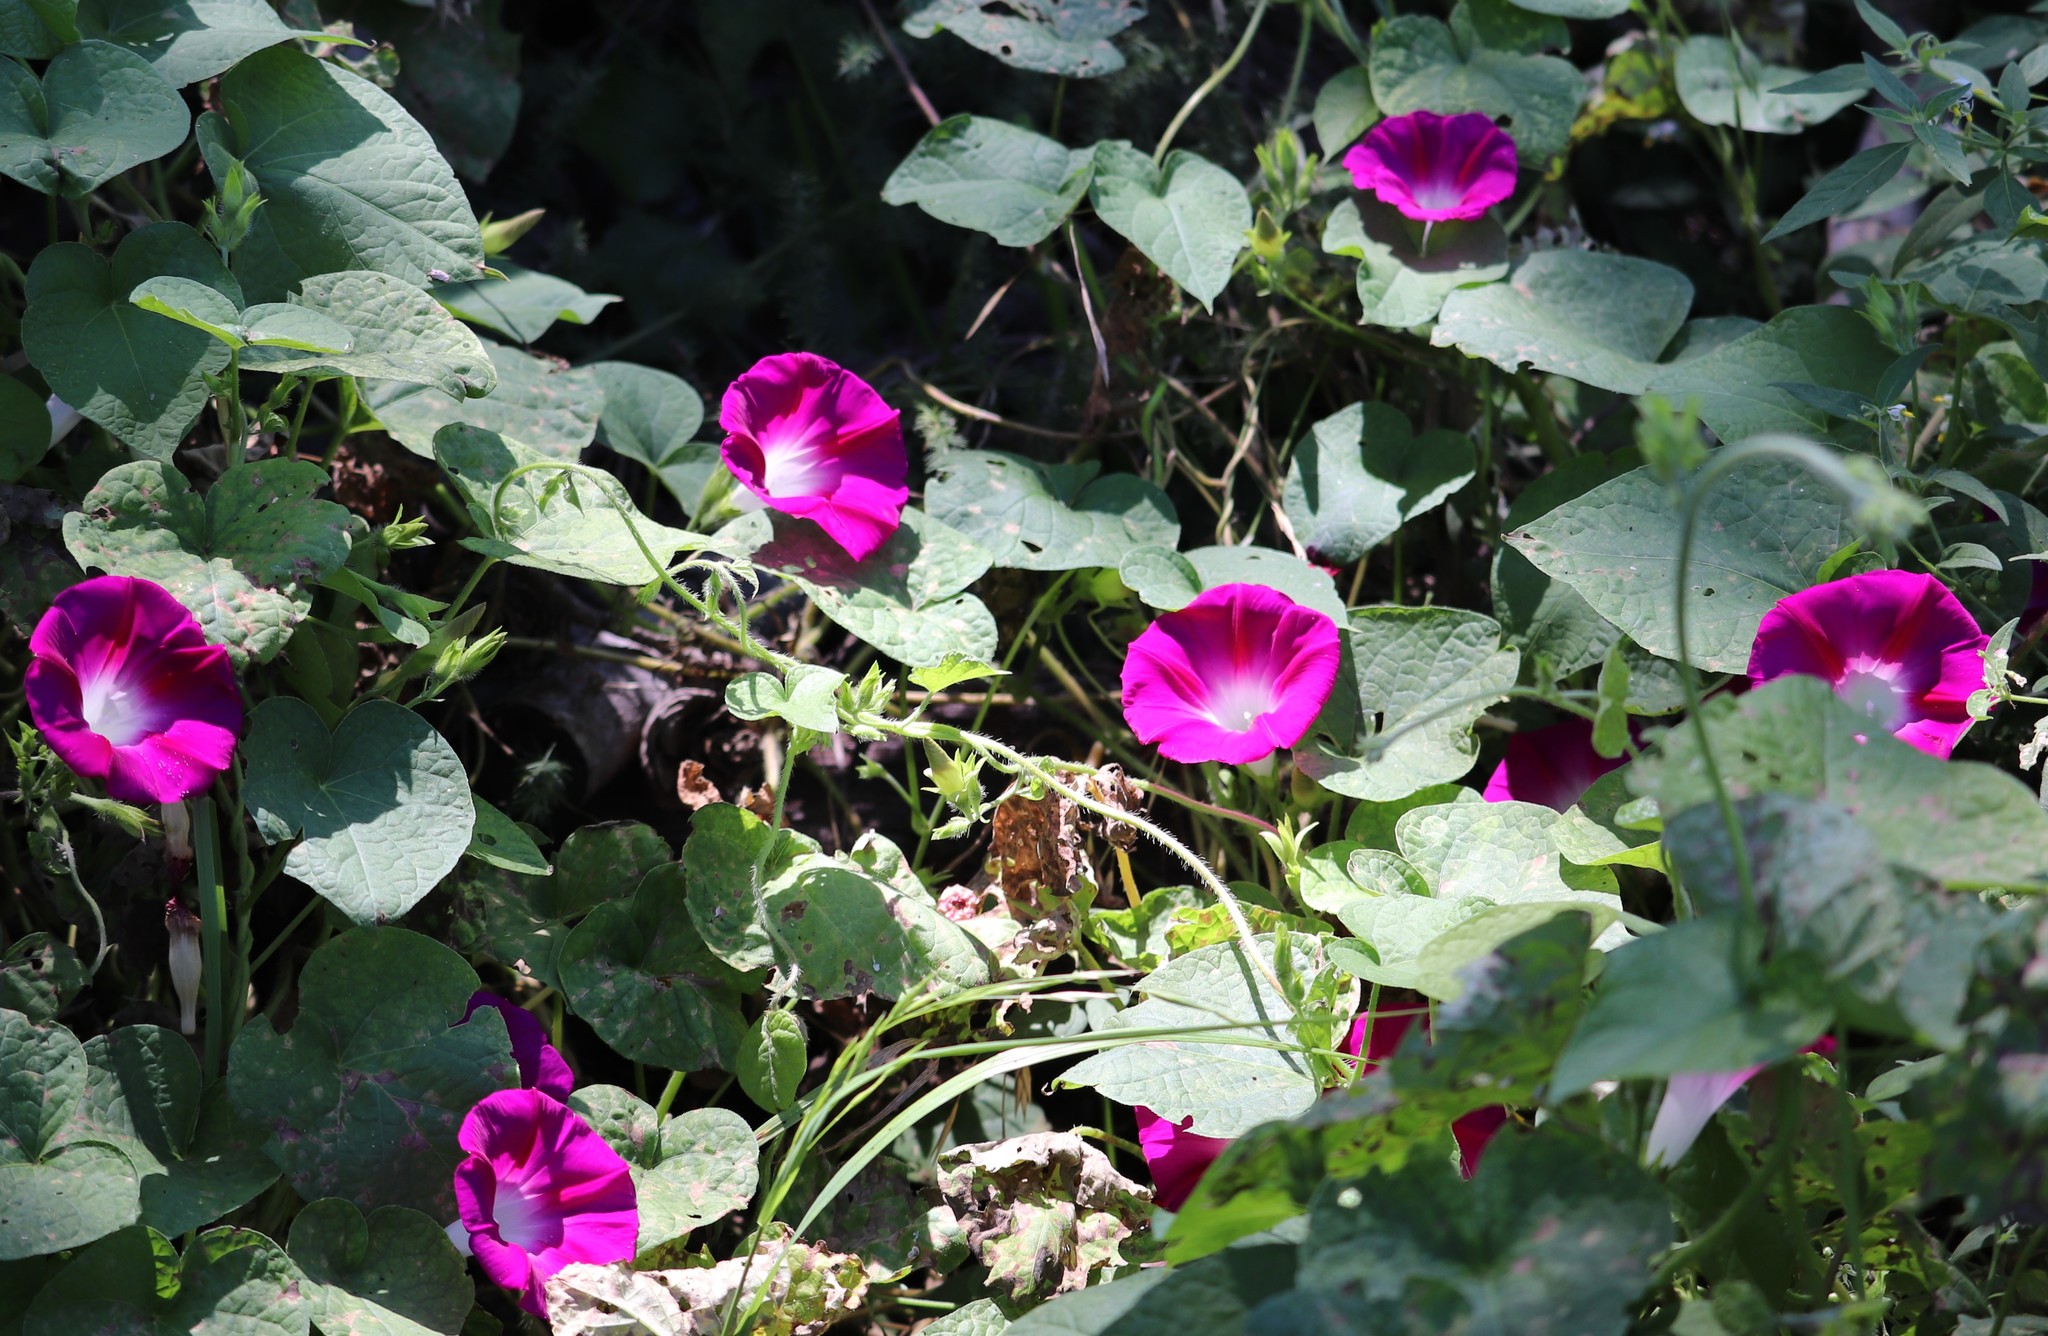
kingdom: Plantae
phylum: Tracheophyta
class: Magnoliopsida
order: Solanales
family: Convolvulaceae
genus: Ipomoea
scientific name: Ipomoea purpurea
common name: Common morning-glory
